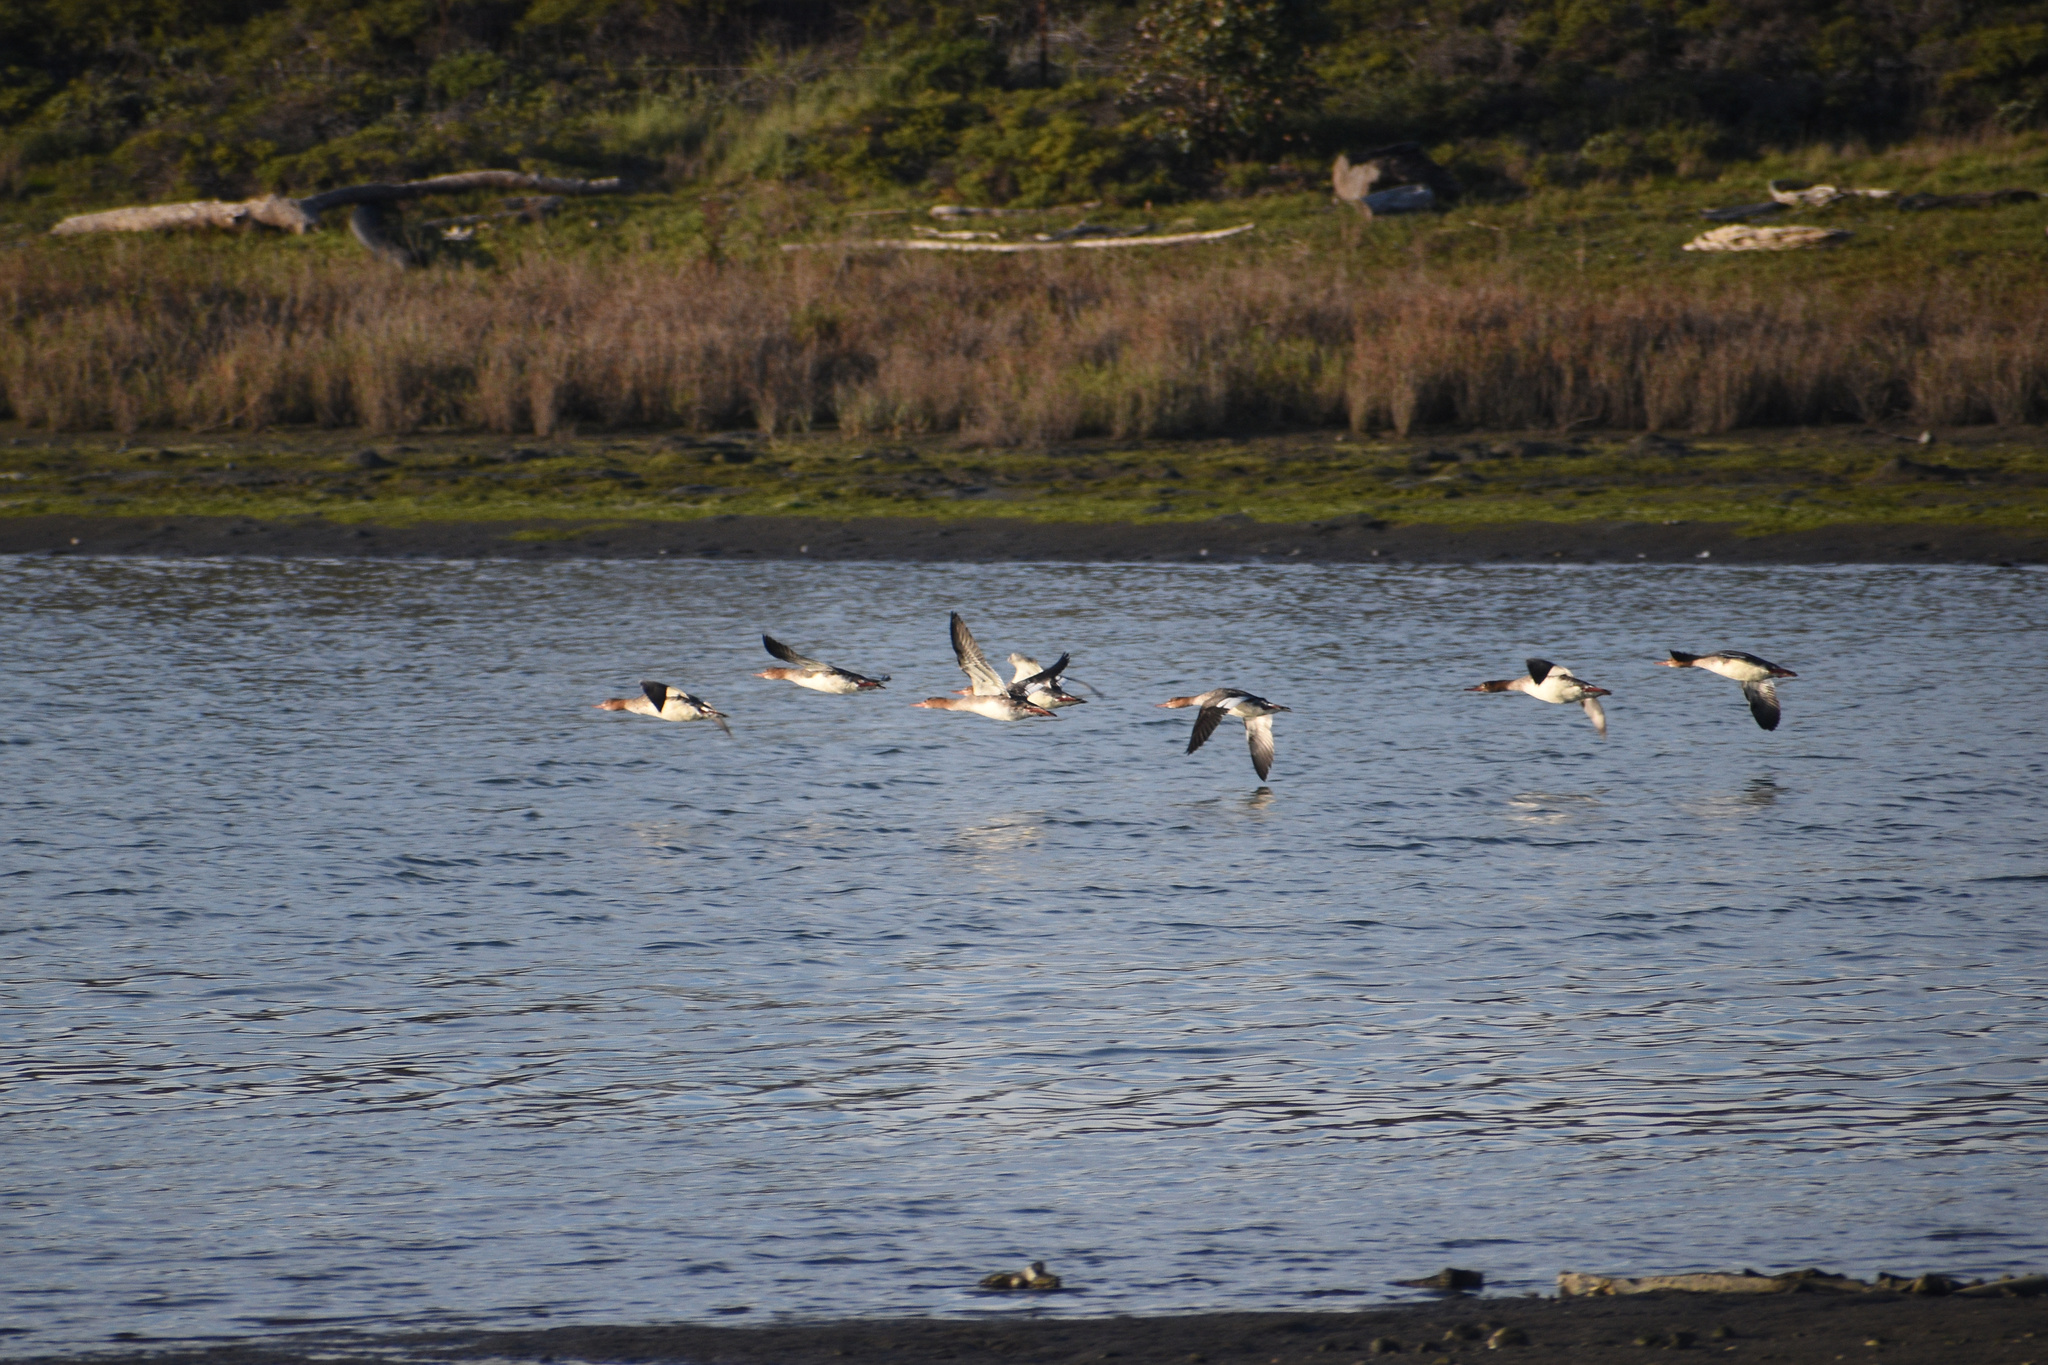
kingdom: Animalia
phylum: Chordata
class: Aves
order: Anseriformes
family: Anatidae
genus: Mergus
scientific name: Mergus serrator
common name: Red-breasted merganser
